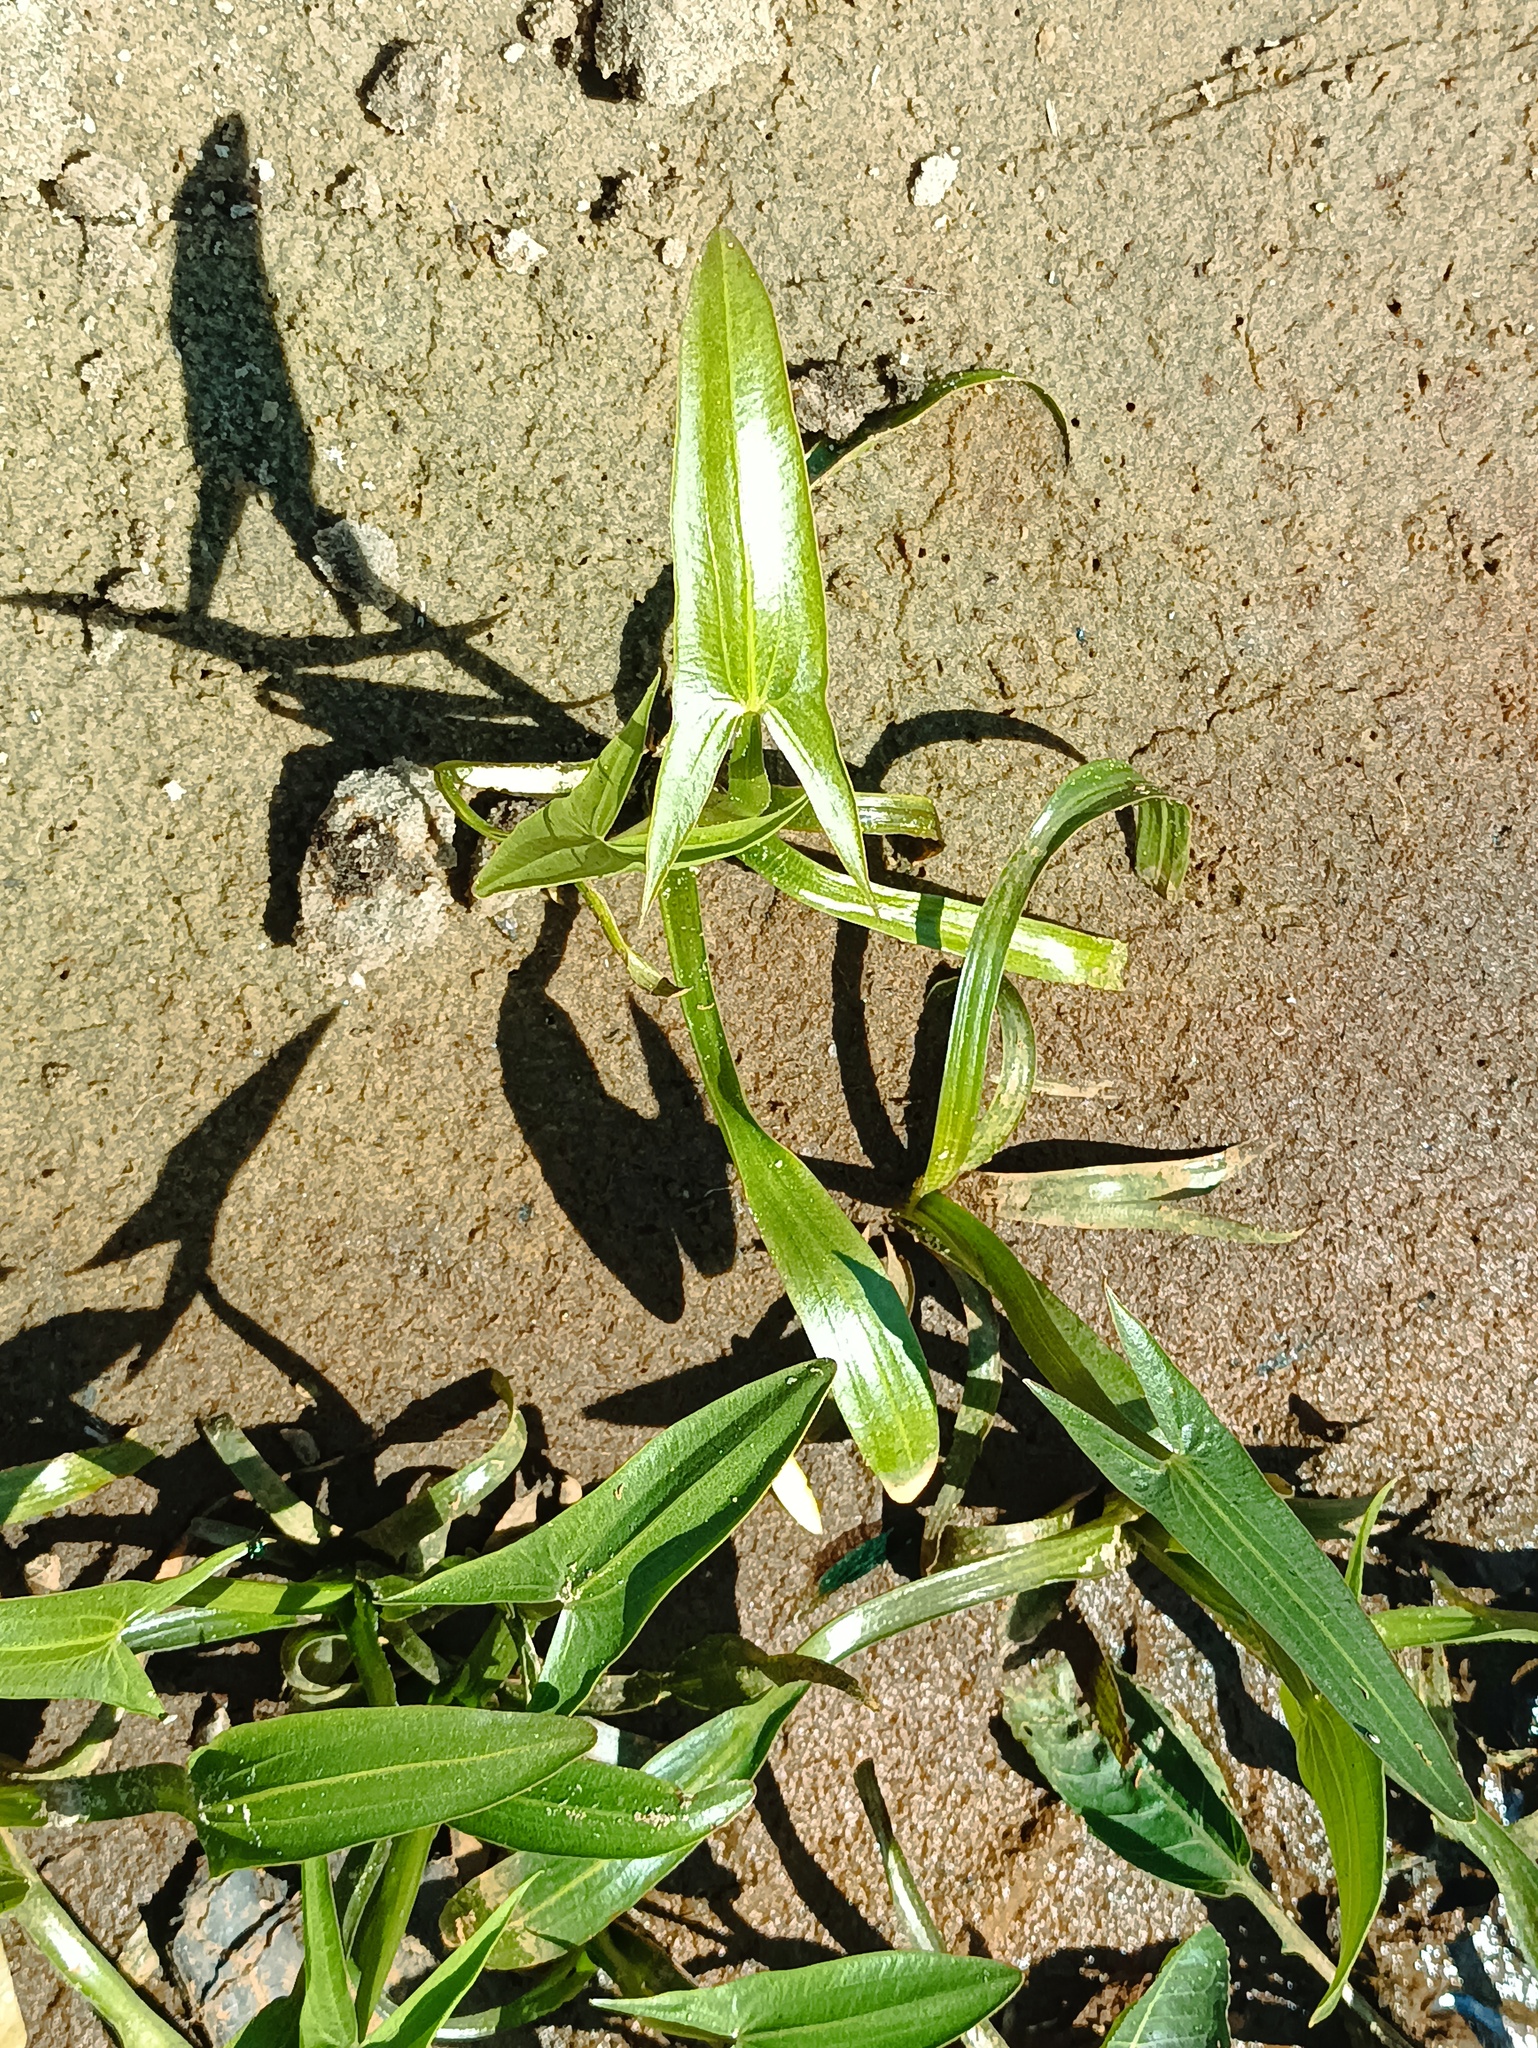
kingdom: Plantae
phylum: Tracheophyta
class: Liliopsida
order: Alismatales
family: Alismataceae
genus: Sagittaria
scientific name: Sagittaria sagittifolia
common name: Arrowhead
